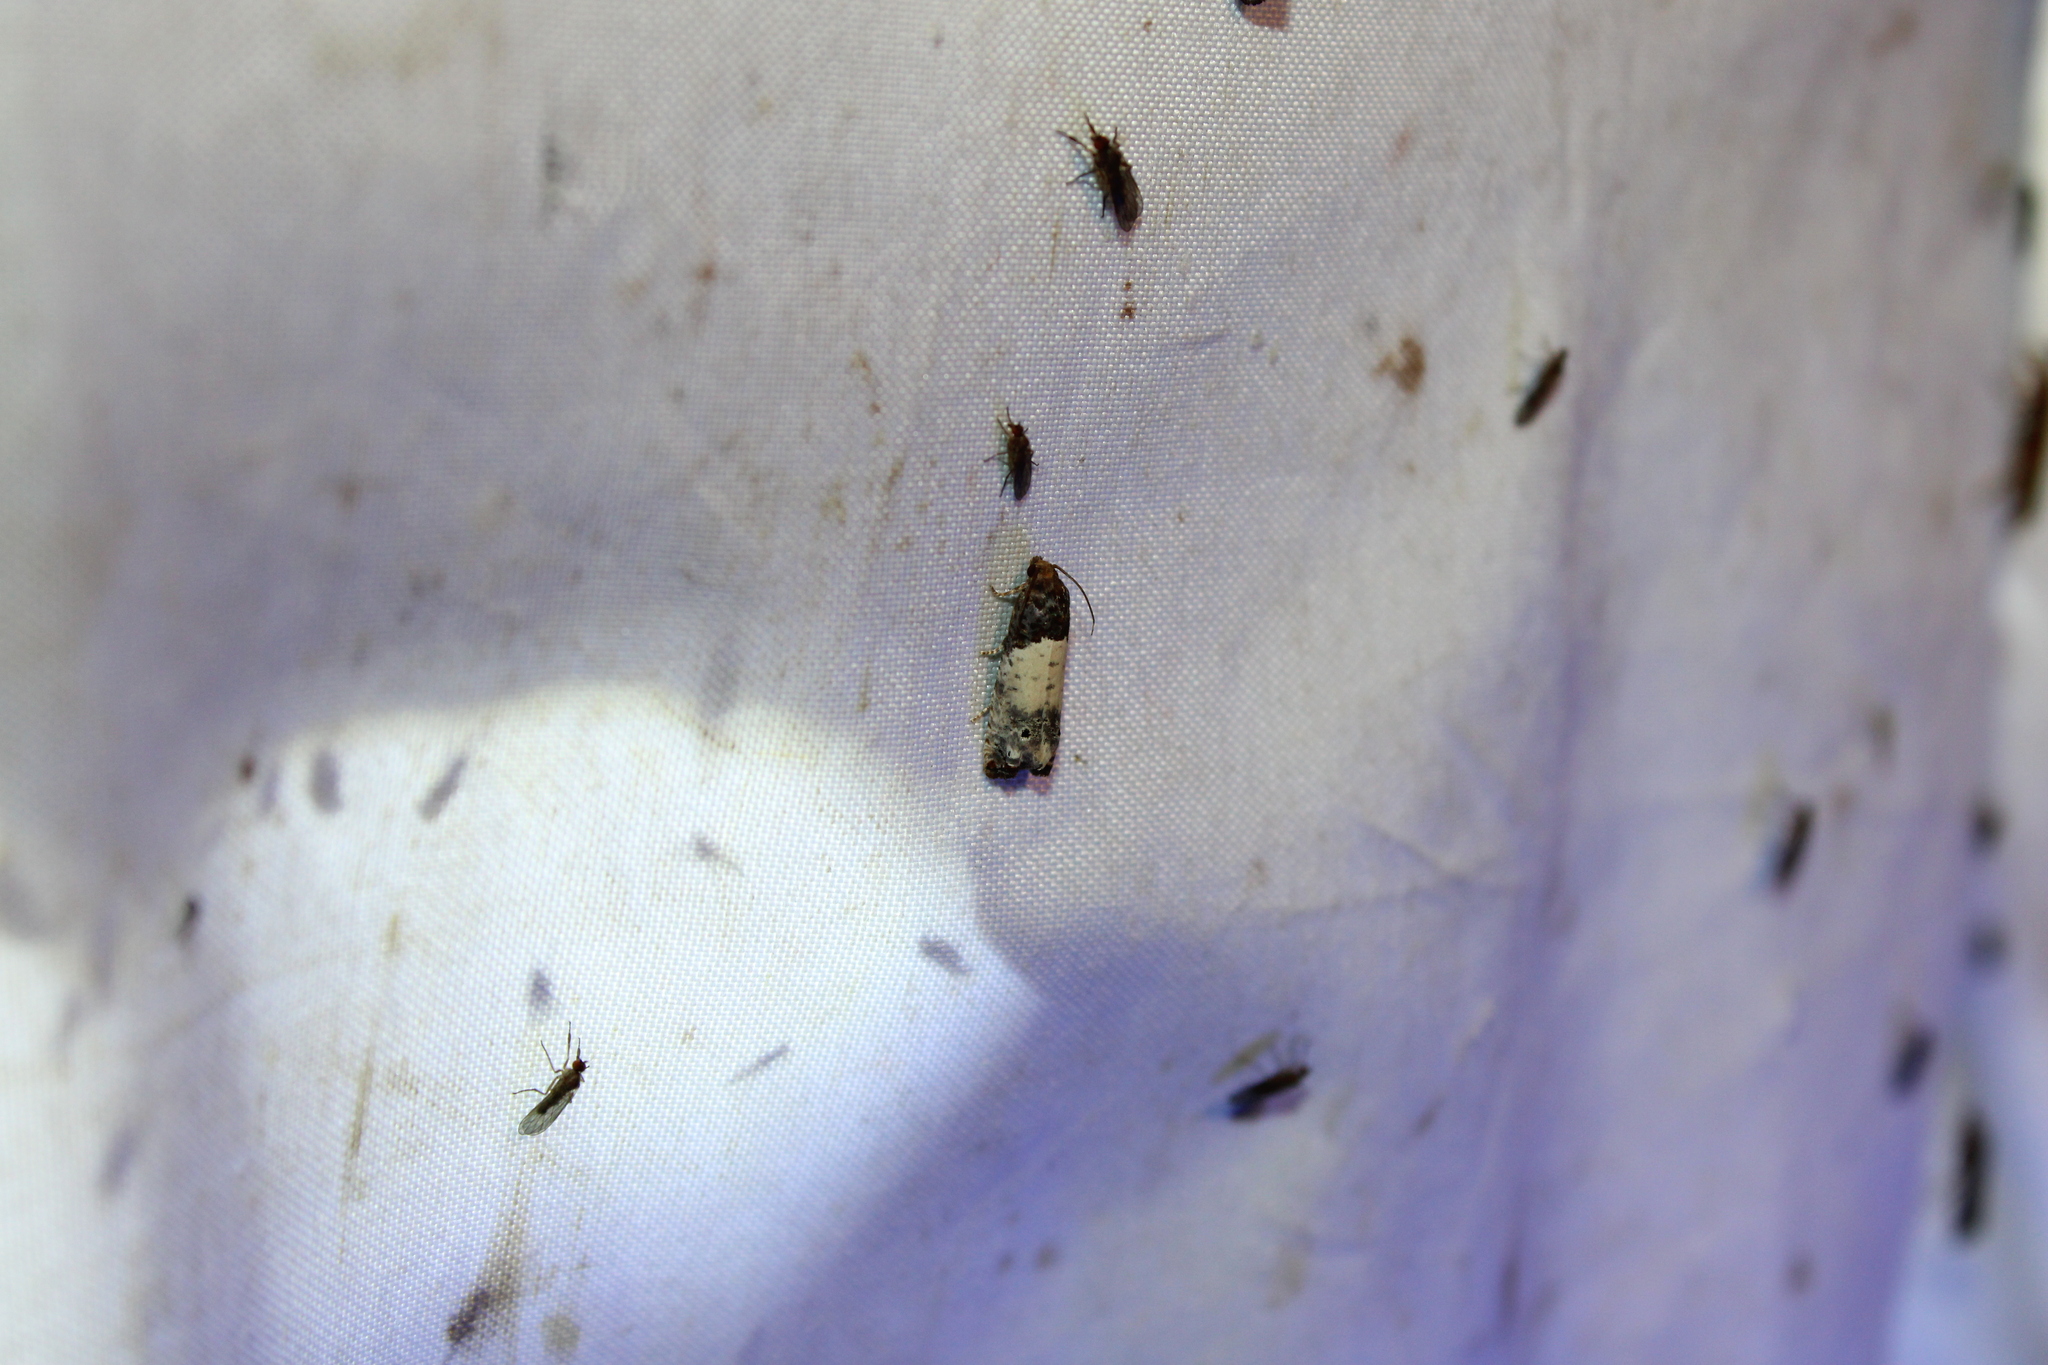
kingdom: Animalia
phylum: Arthropoda
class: Insecta
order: Lepidoptera
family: Tortricidae
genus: Epiblema
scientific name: Epiblema scudderiana
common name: Goldenrod gall moth
